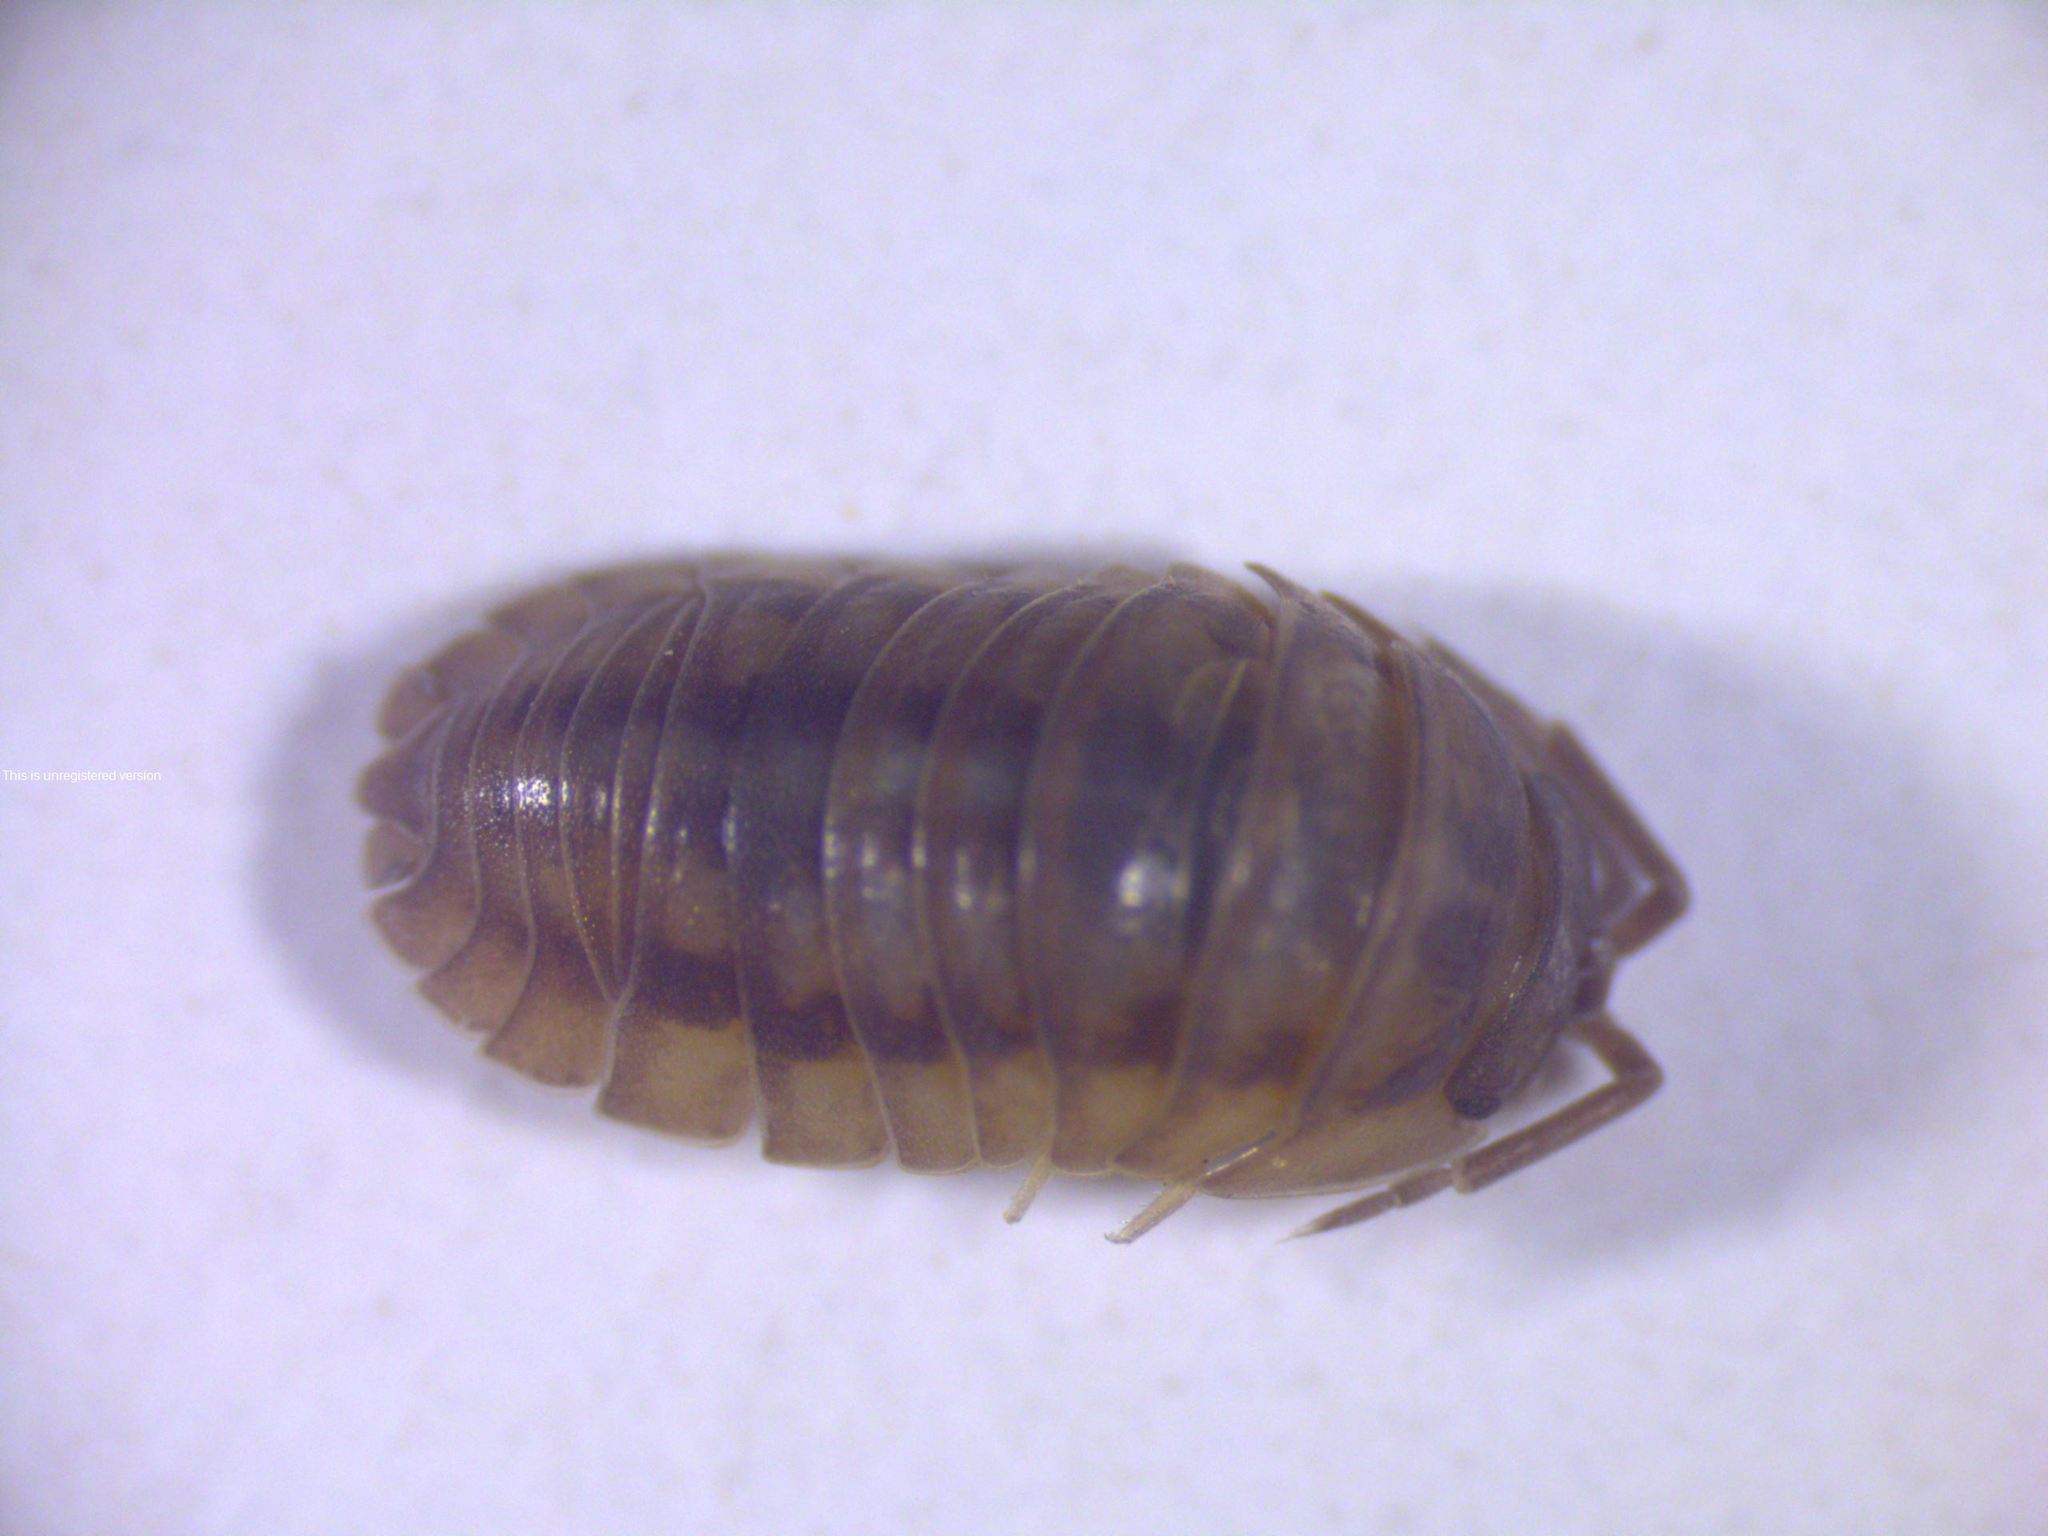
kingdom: Animalia
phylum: Arthropoda
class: Malacostraca
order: Isopoda
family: Armadillidiidae
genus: Armadillidium
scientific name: Armadillidium nasatum
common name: Isopod
